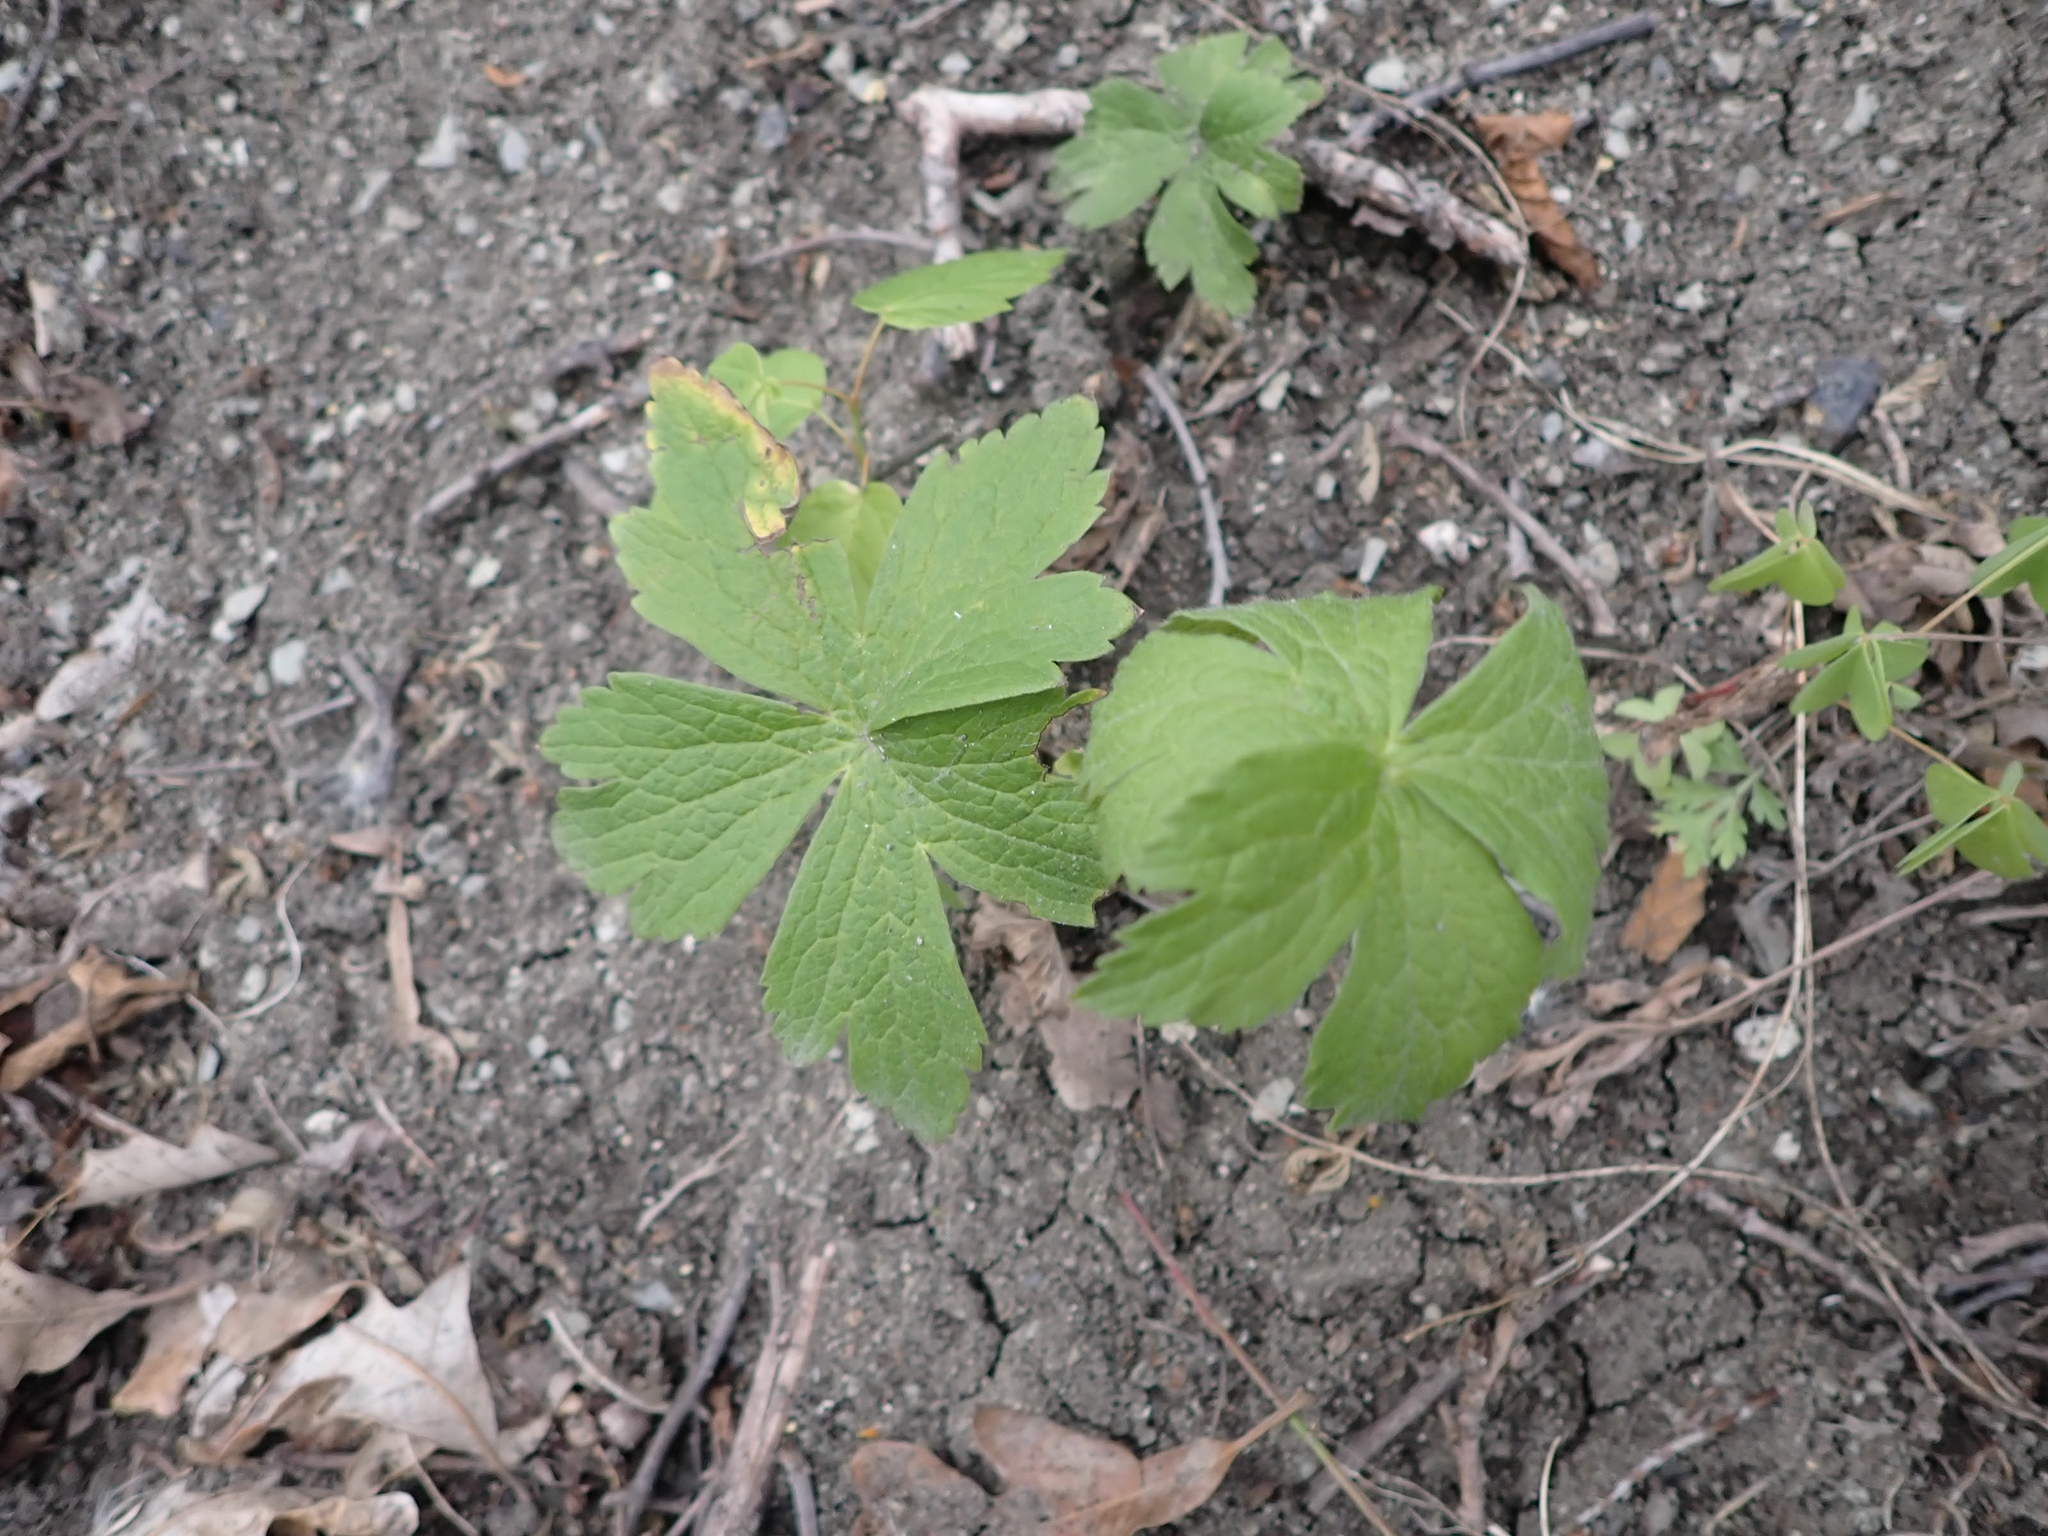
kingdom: Plantae
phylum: Tracheophyta
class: Magnoliopsida
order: Ranunculales
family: Ranunculaceae
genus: Anemonastrum
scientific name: Anemonastrum canadense
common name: Canada anemone
